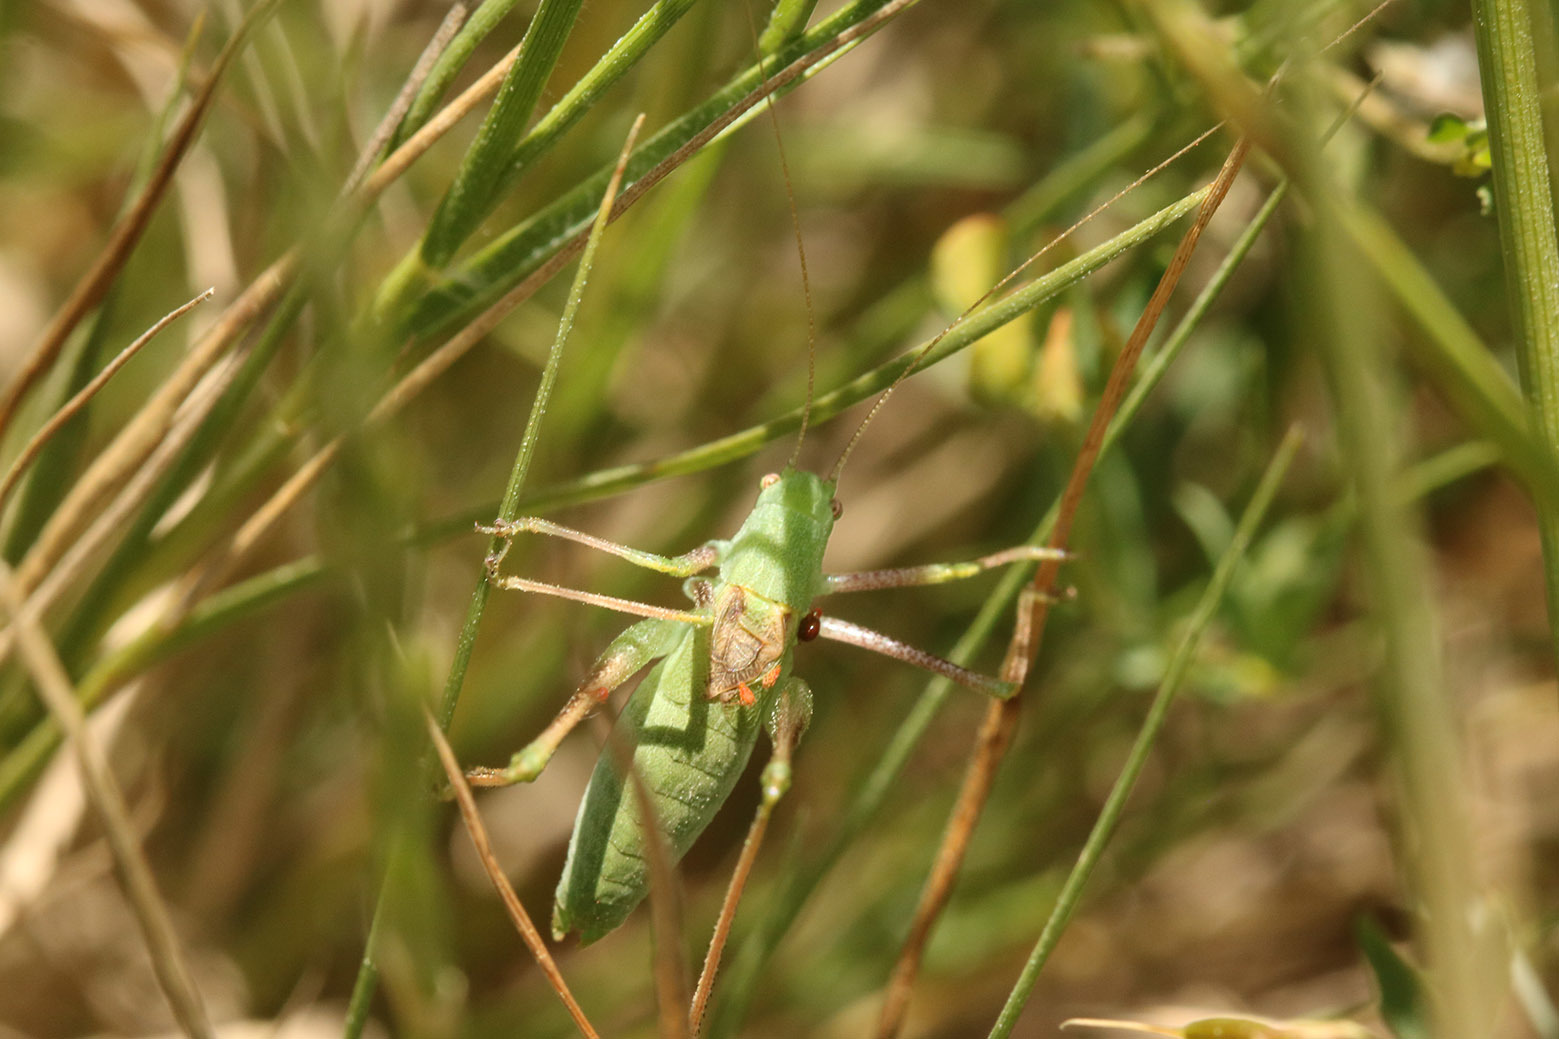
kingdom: Animalia
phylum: Arthropoda
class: Insecta
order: Orthoptera
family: Tettigoniidae
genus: Anisophya
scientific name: Anisophya
